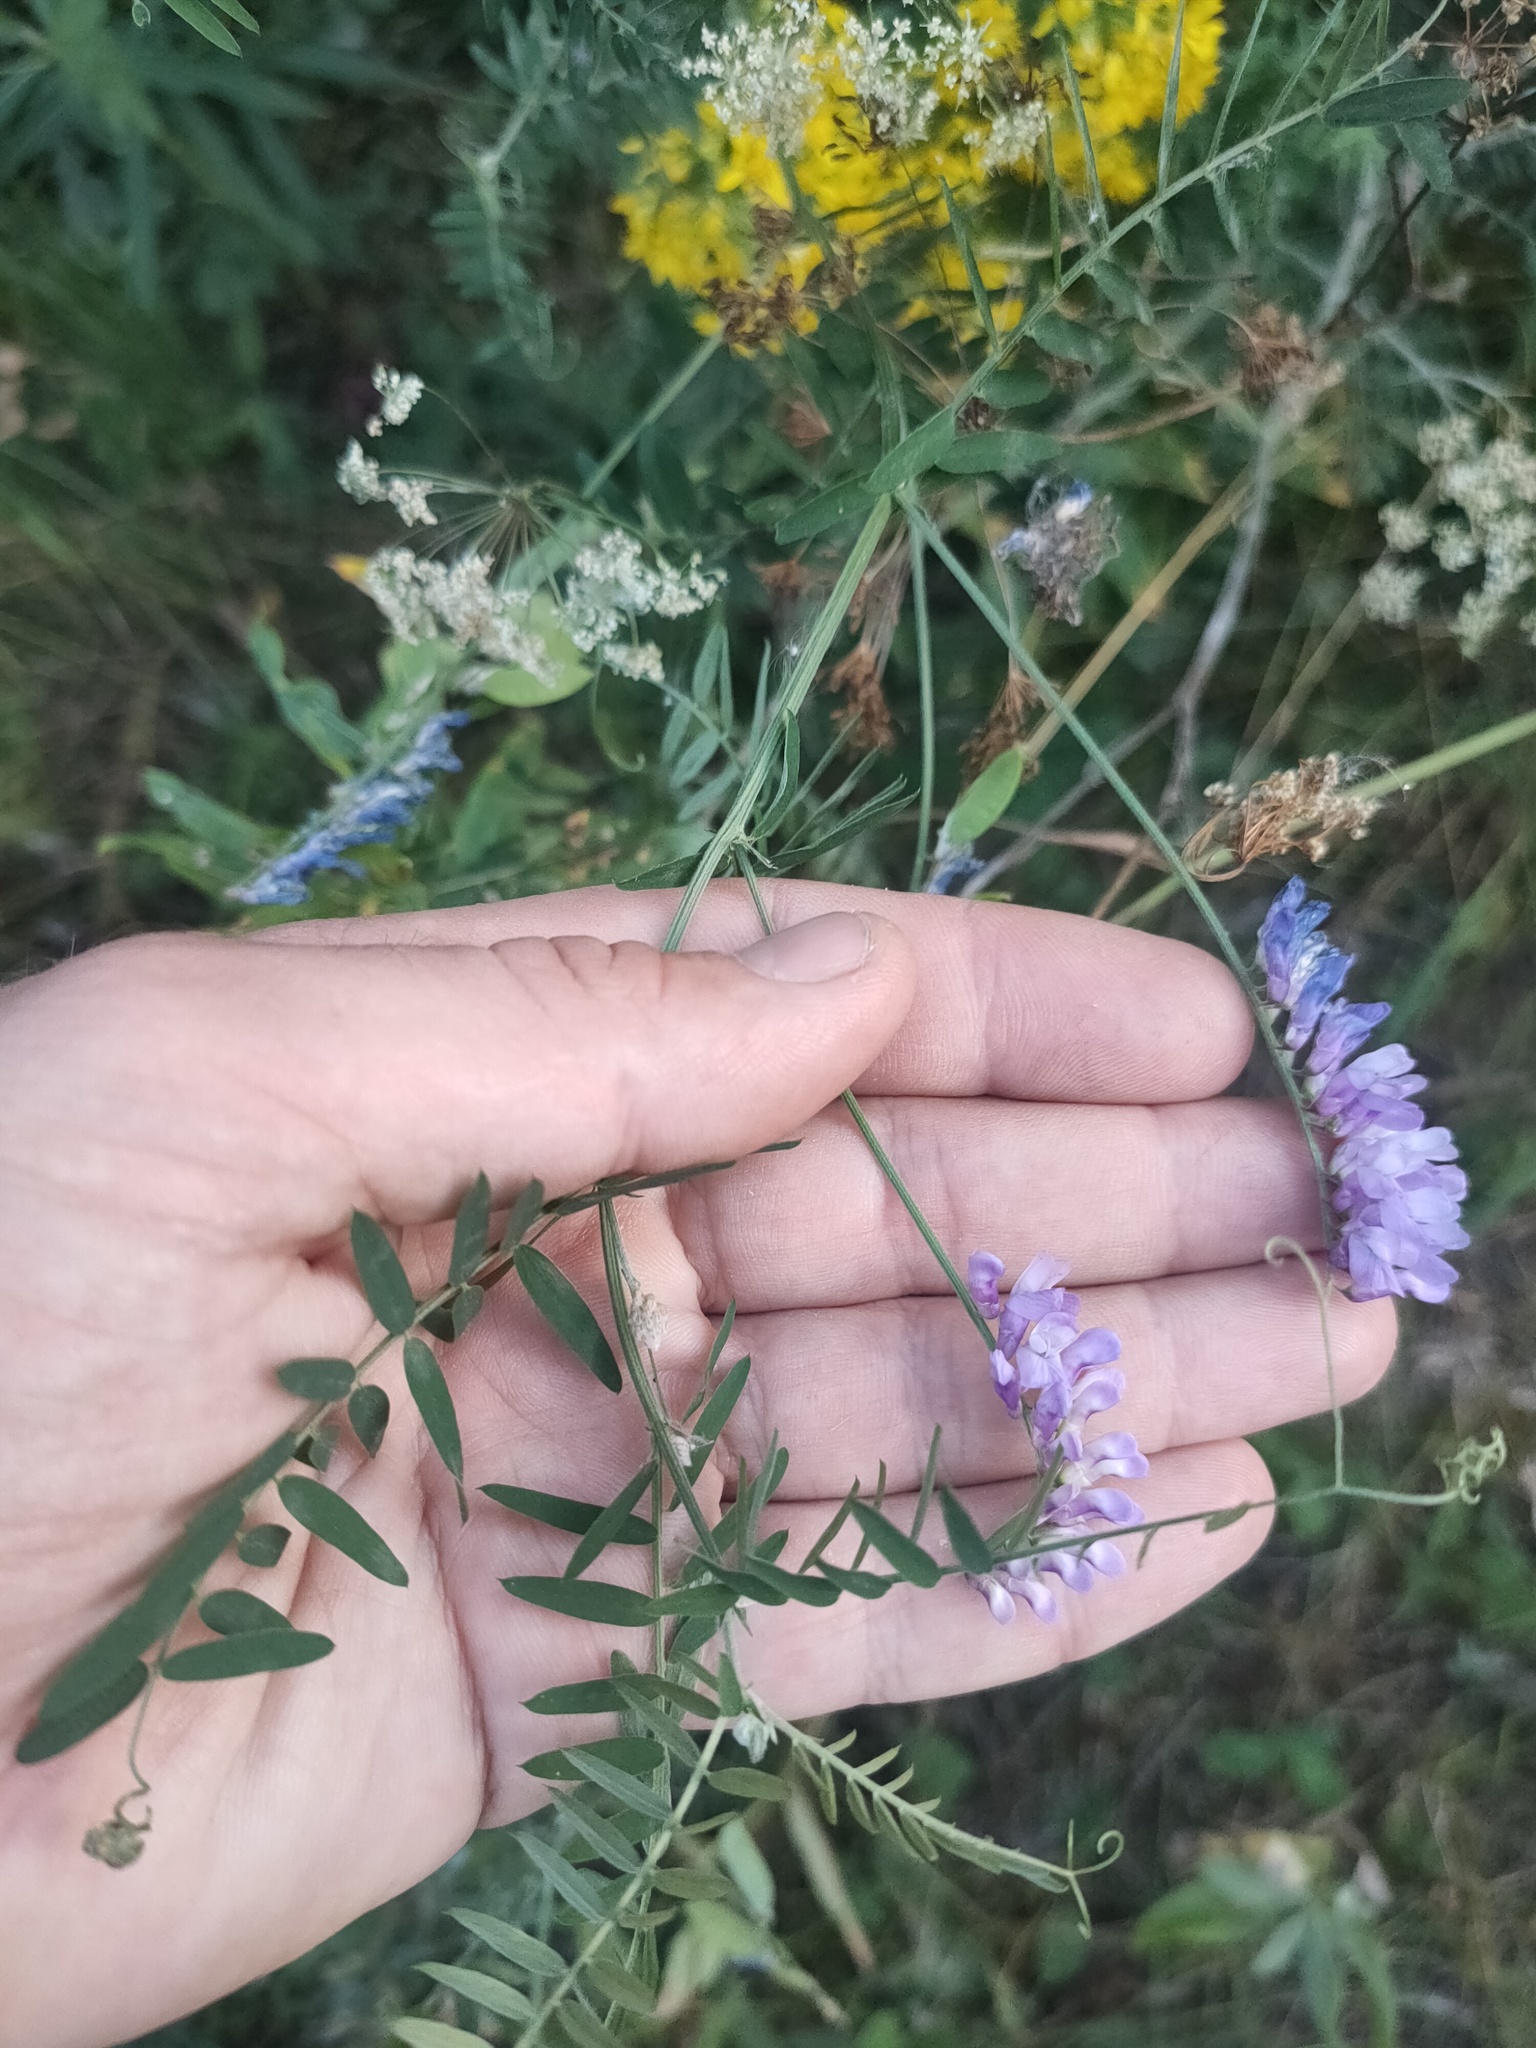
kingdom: Plantae
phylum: Tracheophyta
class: Magnoliopsida
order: Fabales
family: Fabaceae
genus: Vicia
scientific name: Vicia cracca
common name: Bird vetch
